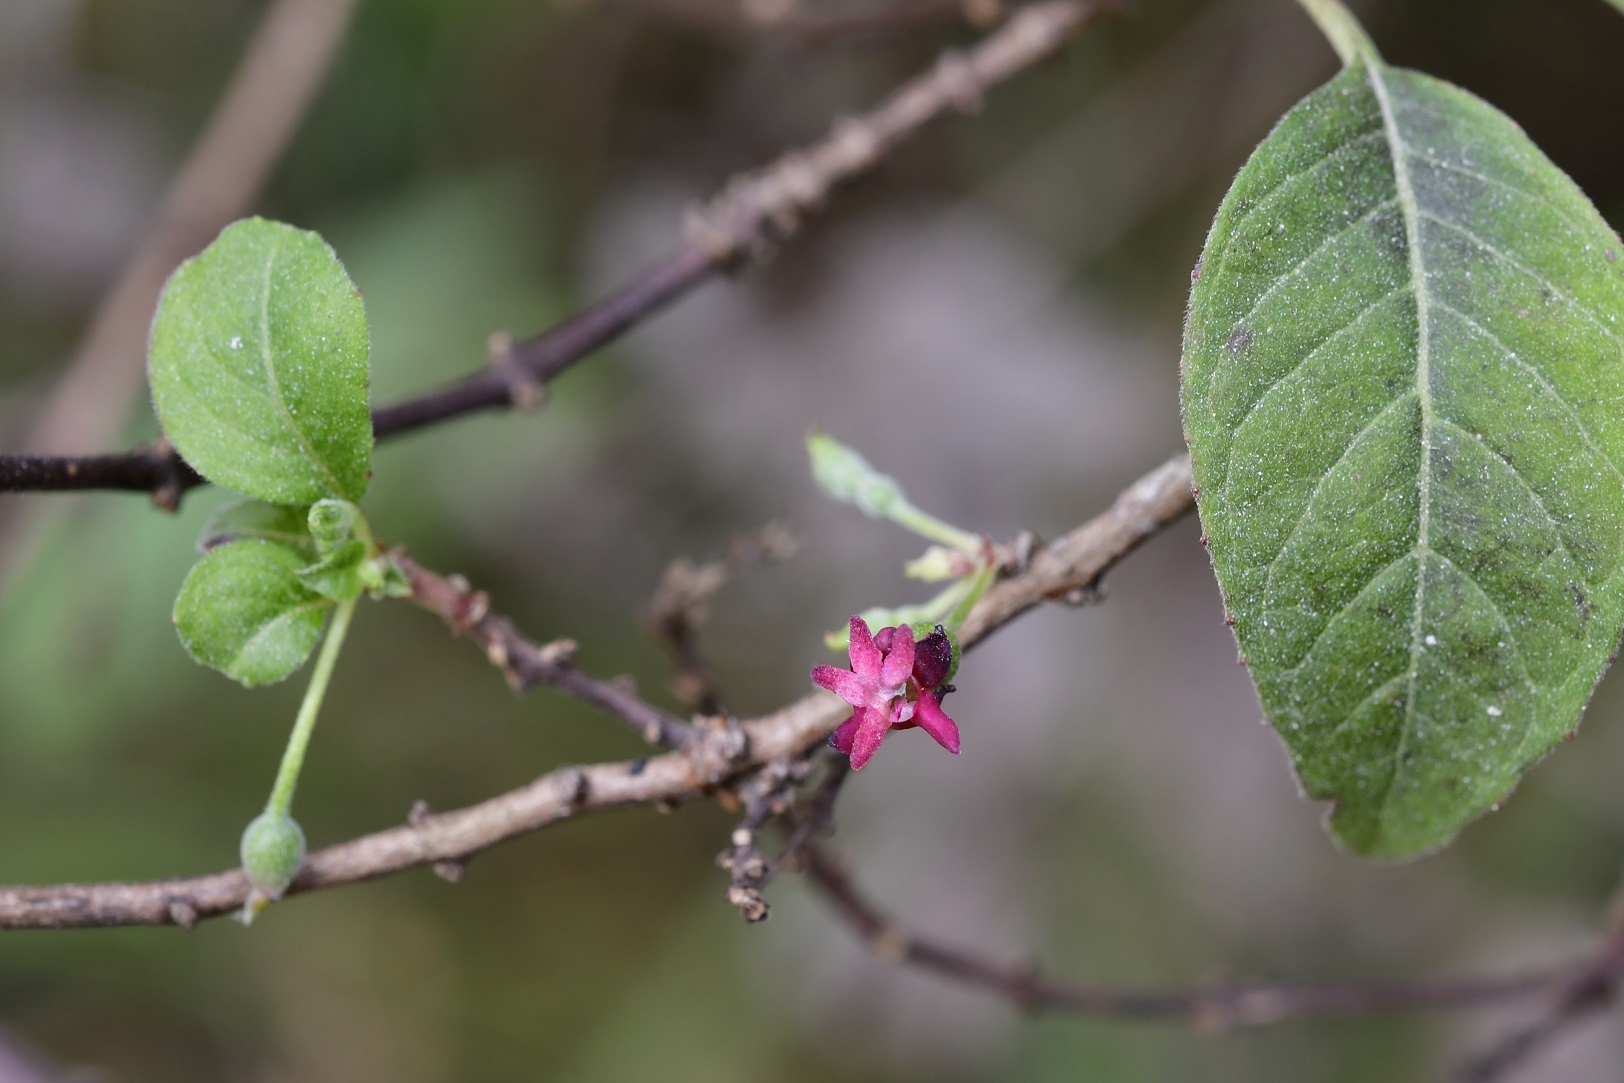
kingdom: Plantae
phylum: Tracheophyta
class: Magnoliopsida
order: Myrtales
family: Onagraceae
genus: Fuchsia
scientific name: Fuchsia encliandra
